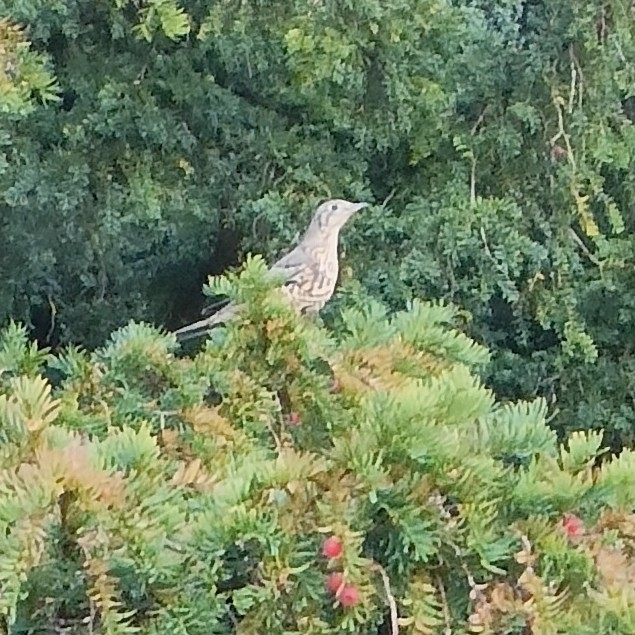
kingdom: Animalia
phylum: Chordata
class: Aves
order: Passeriformes
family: Turdidae
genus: Turdus
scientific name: Turdus viscivorus
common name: Mistle thrush
